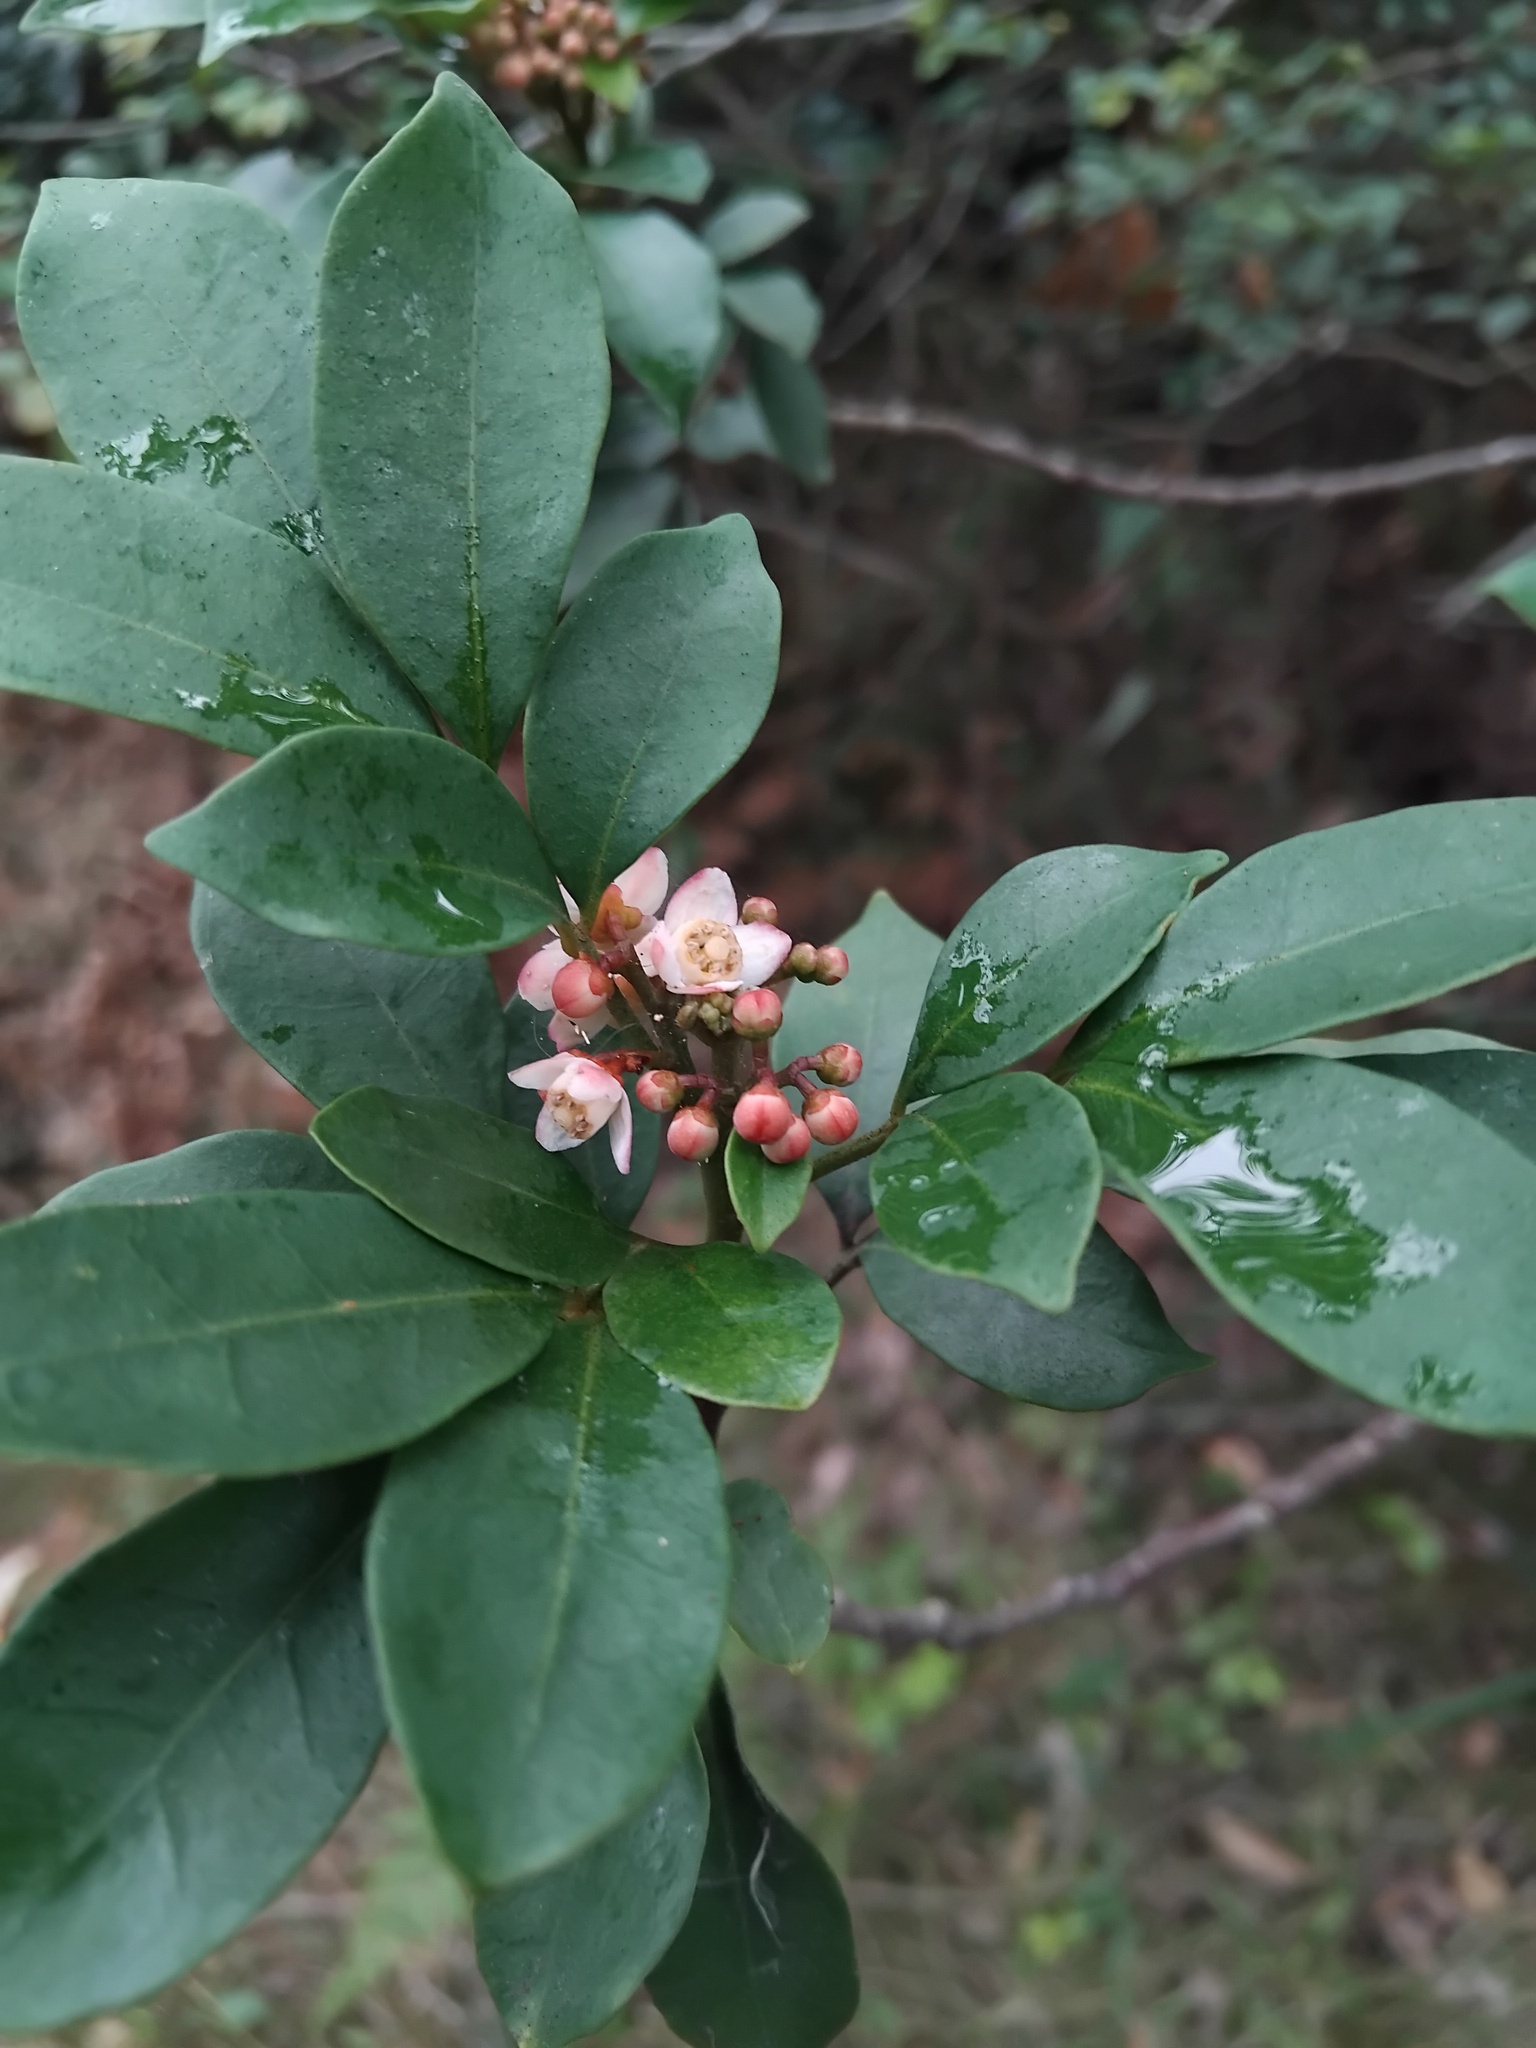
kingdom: Plantae
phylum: Tracheophyta
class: Magnoliopsida
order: Sapindales
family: Meliaceae
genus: Synoum
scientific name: Synoum glandulosum
